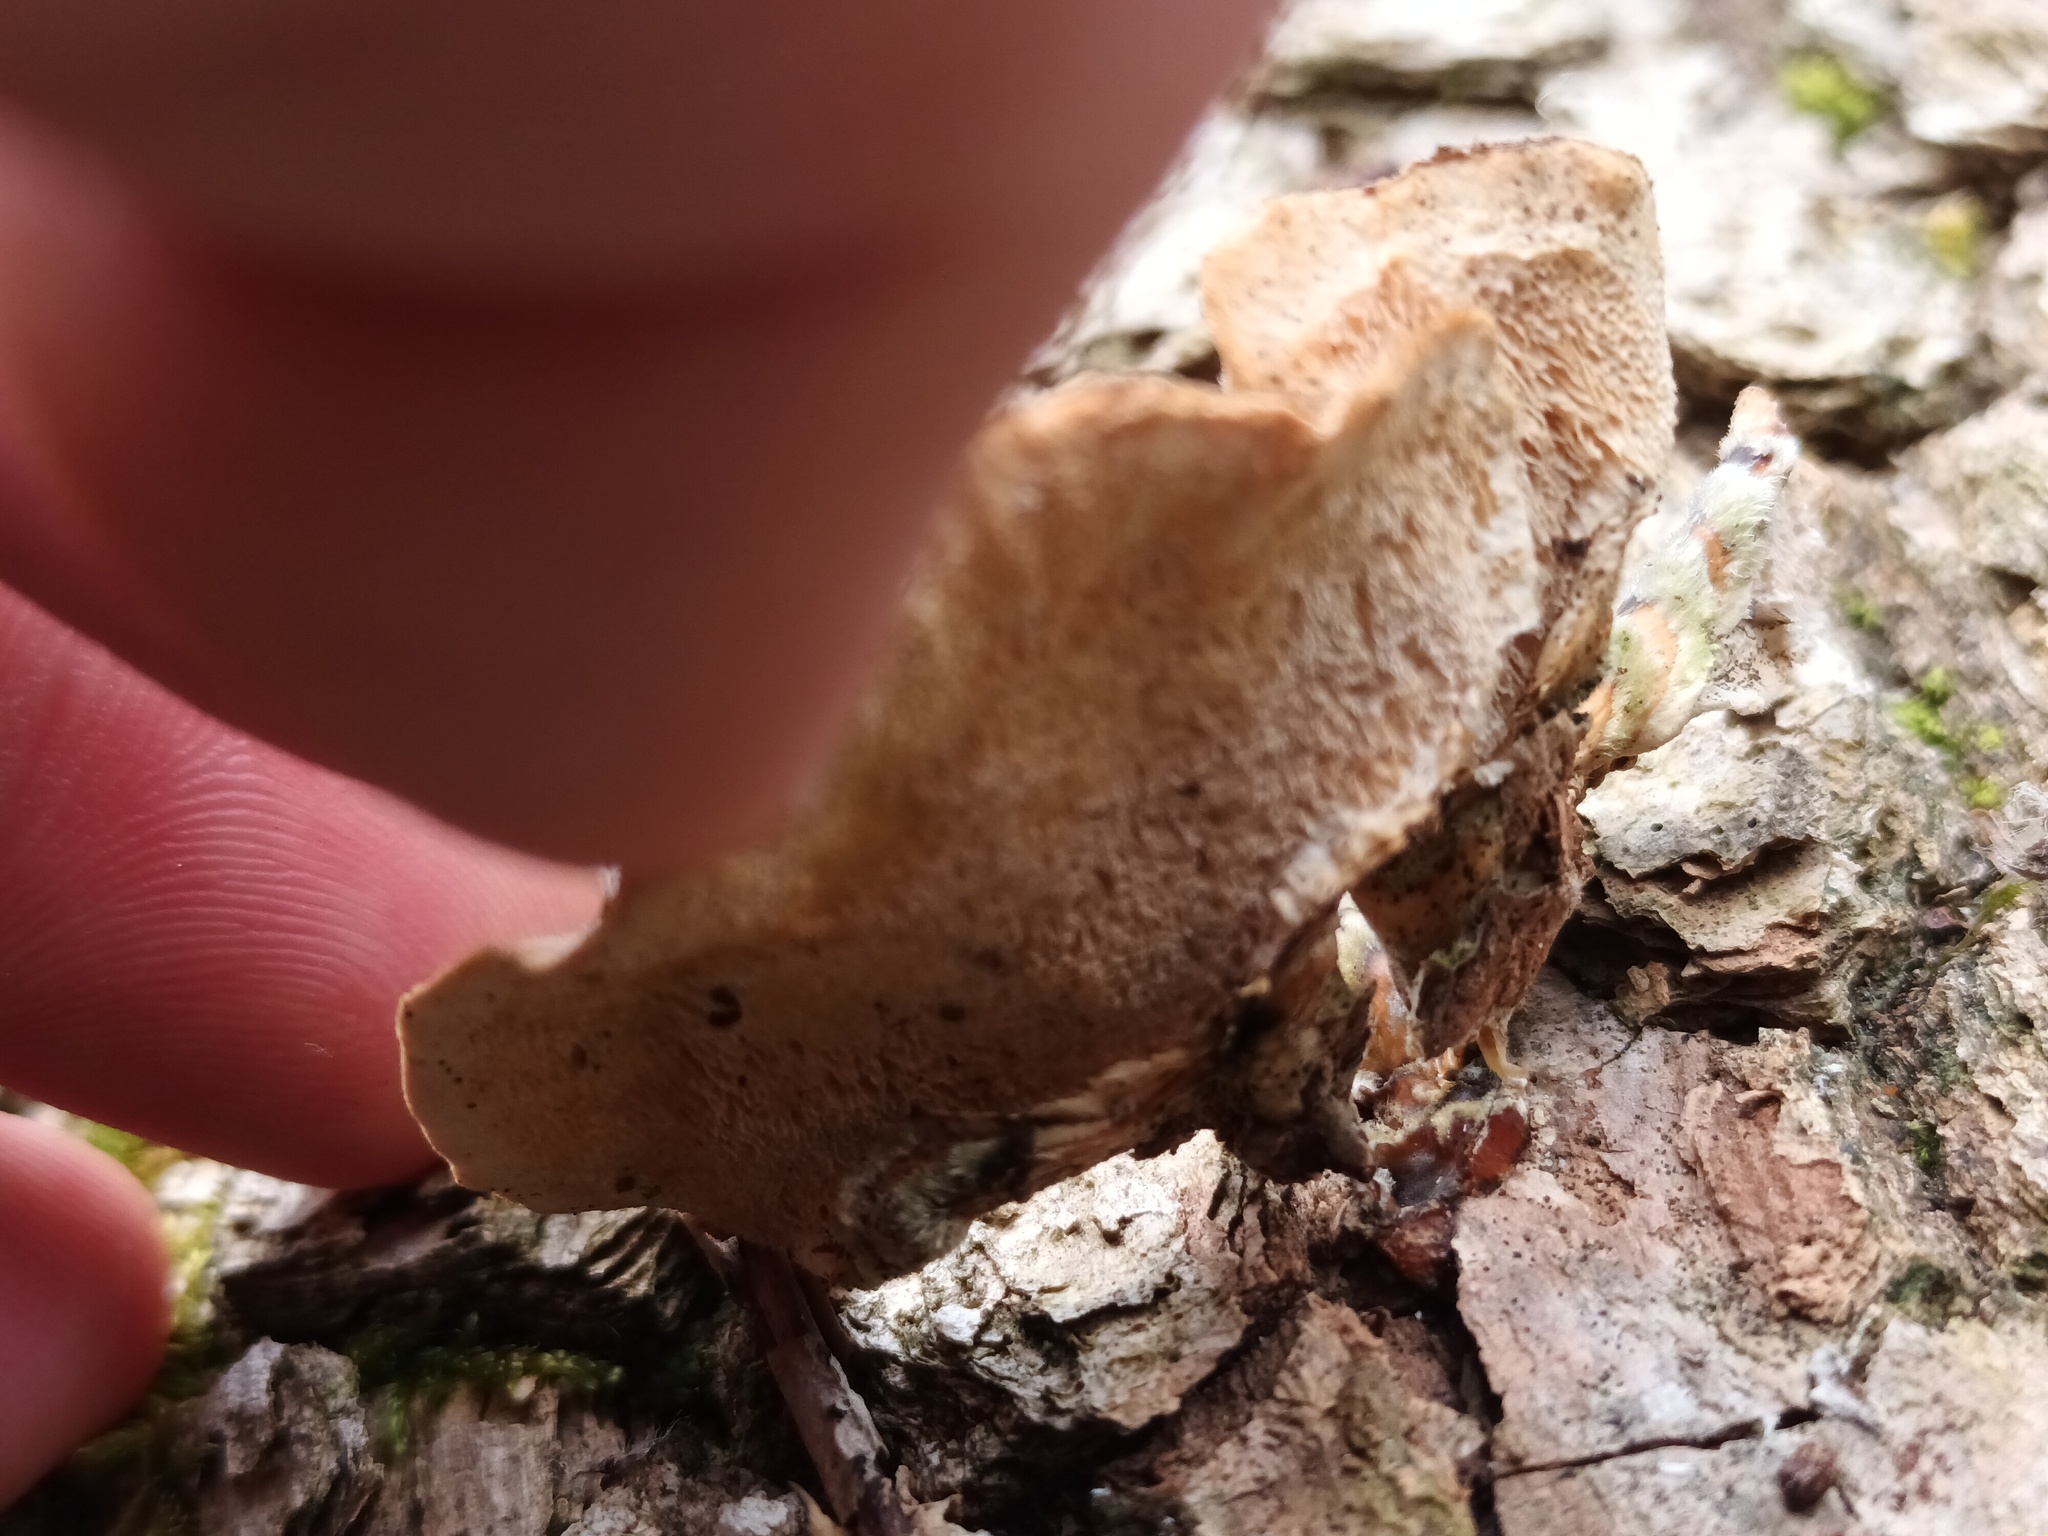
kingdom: Fungi
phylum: Basidiomycota
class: Agaricomycetes
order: Polyporales
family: Polyporaceae
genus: Trametes
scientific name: Trametes versicolor
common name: Turkeytail
